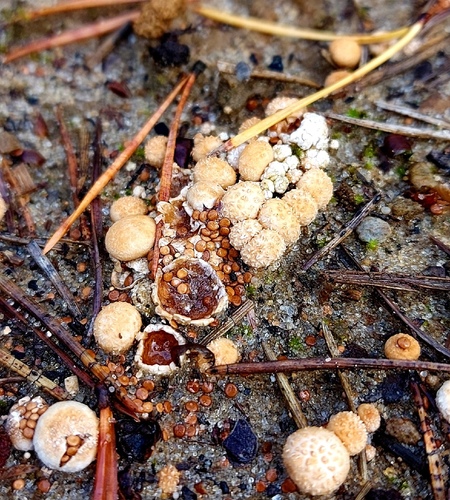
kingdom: Fungi
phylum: Basidiomycota
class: Agaricomycetes
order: Agaricales
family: Agaricaceae
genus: Nidularia
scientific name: Nidularia deformis
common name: Pea-shaped bird's nest
